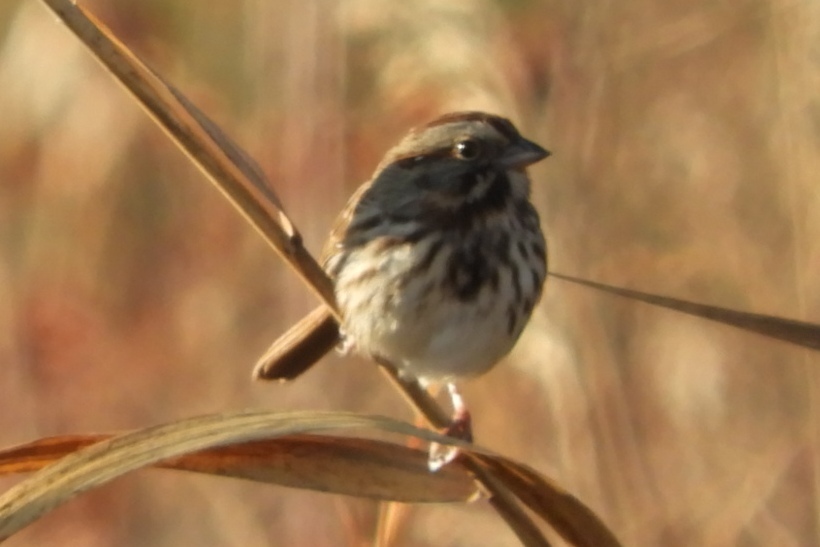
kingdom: Animalia
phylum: Chordata
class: Aves
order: Passeriformes
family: Passerellidae
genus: Melospiza
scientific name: Melospiza melodia
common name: Song sparrow
